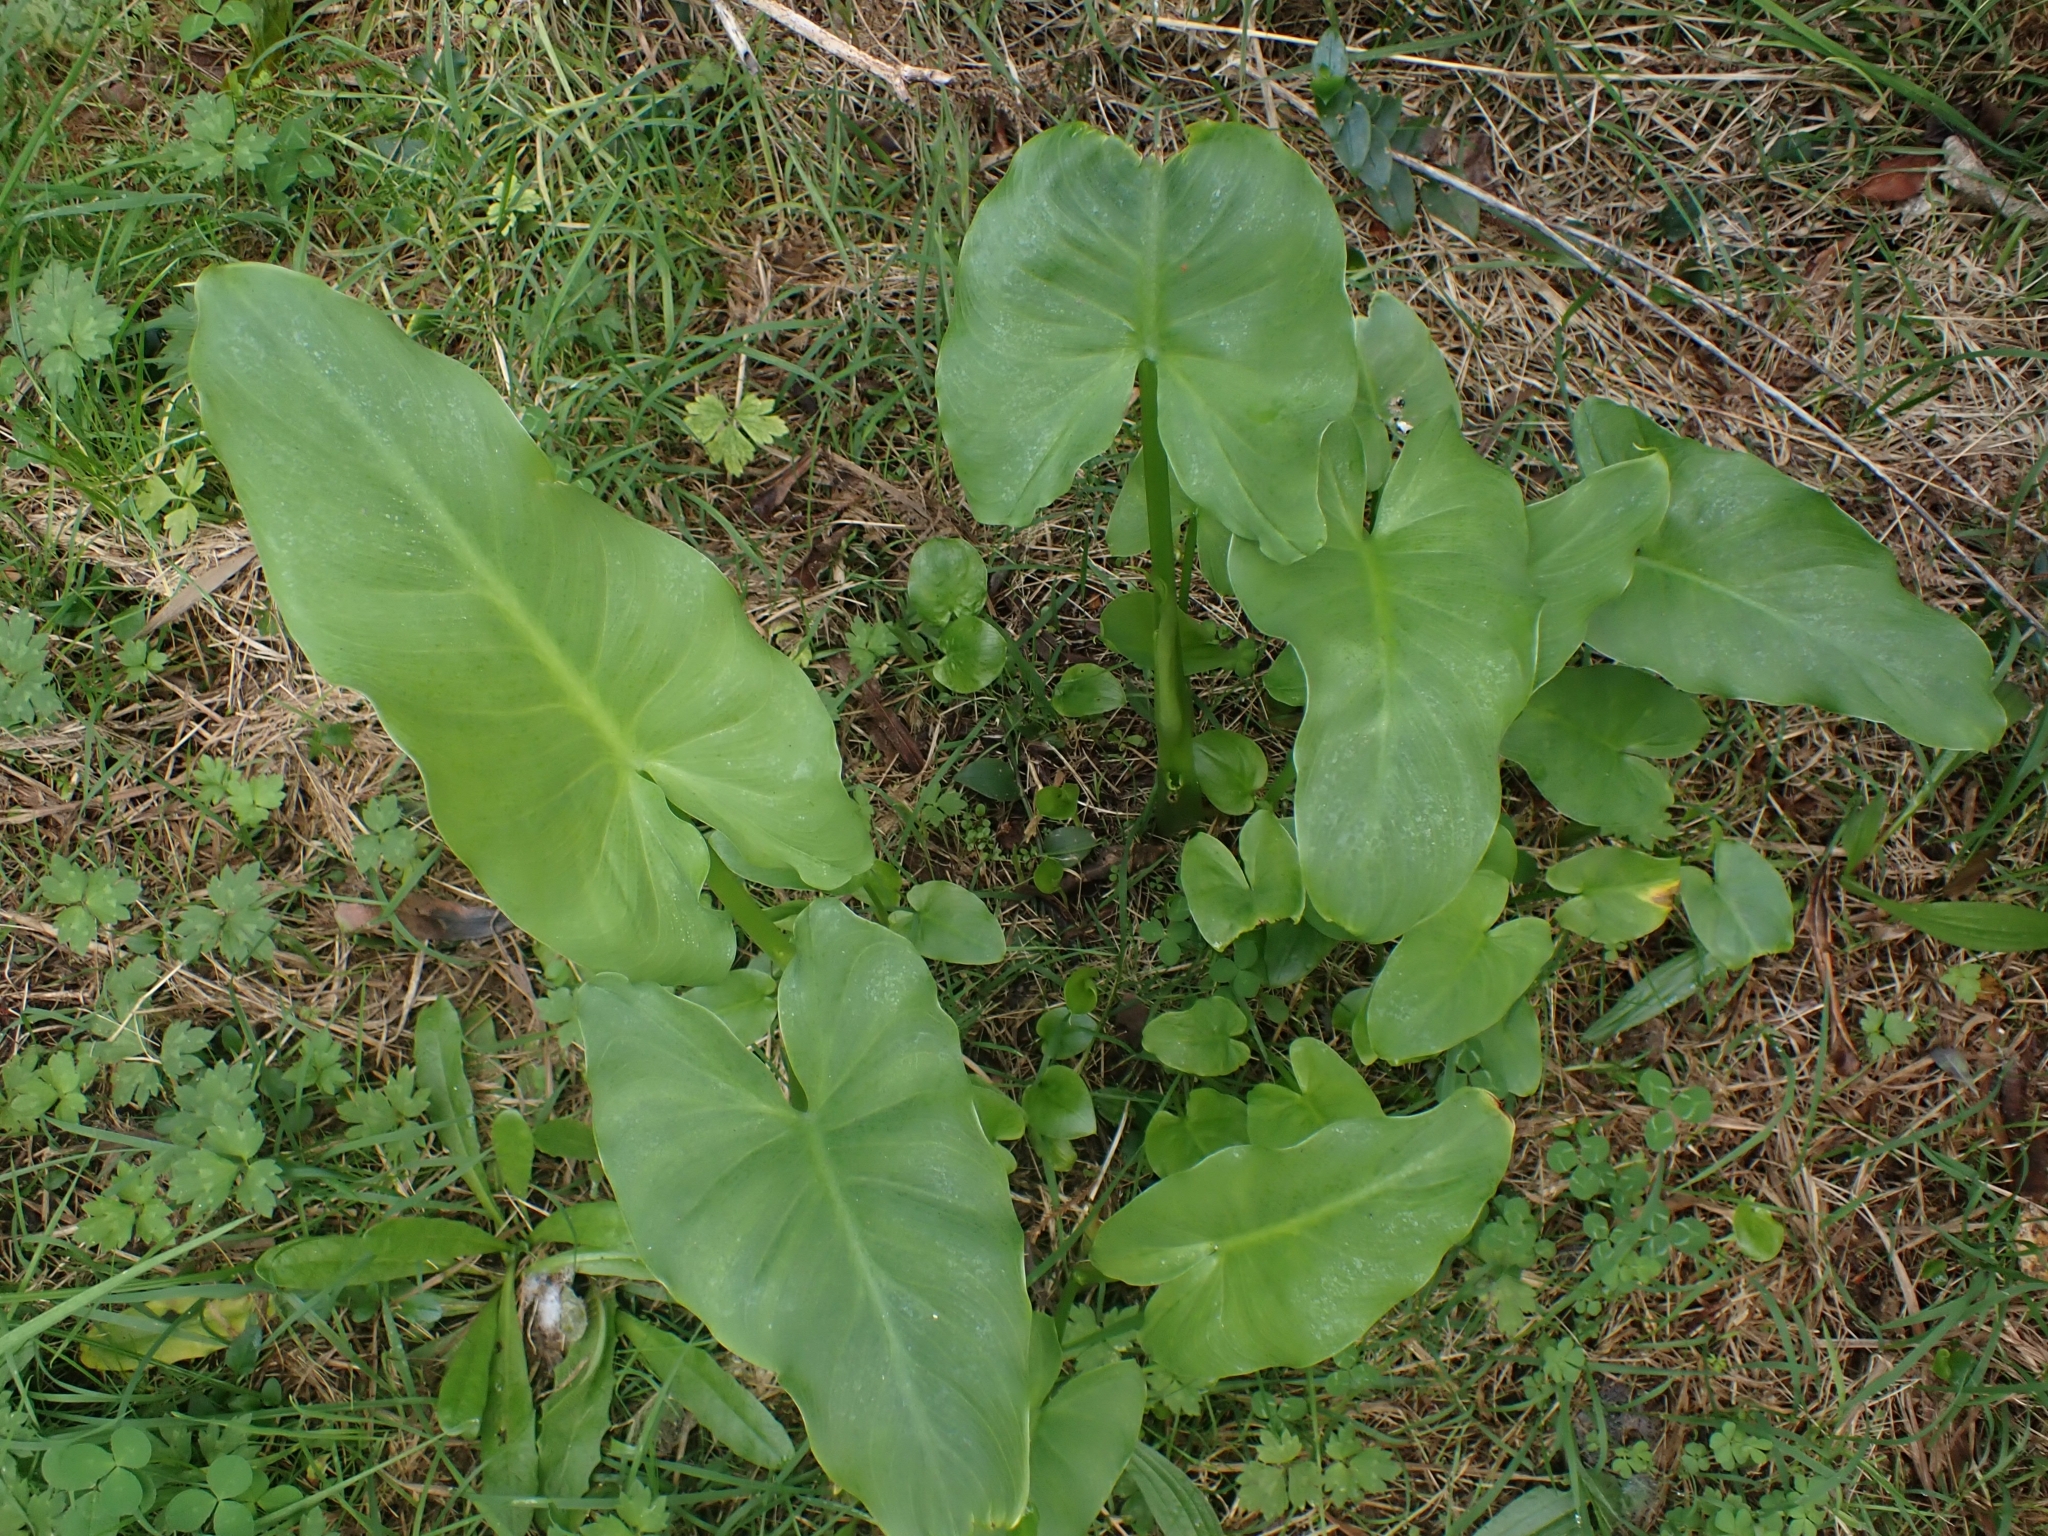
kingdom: Plantae
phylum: Tracheophyta
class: Liliopsida
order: Alismatales
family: Araceae
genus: Zantedeschia
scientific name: Zantedeschia aethiopica
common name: Altar-lily
